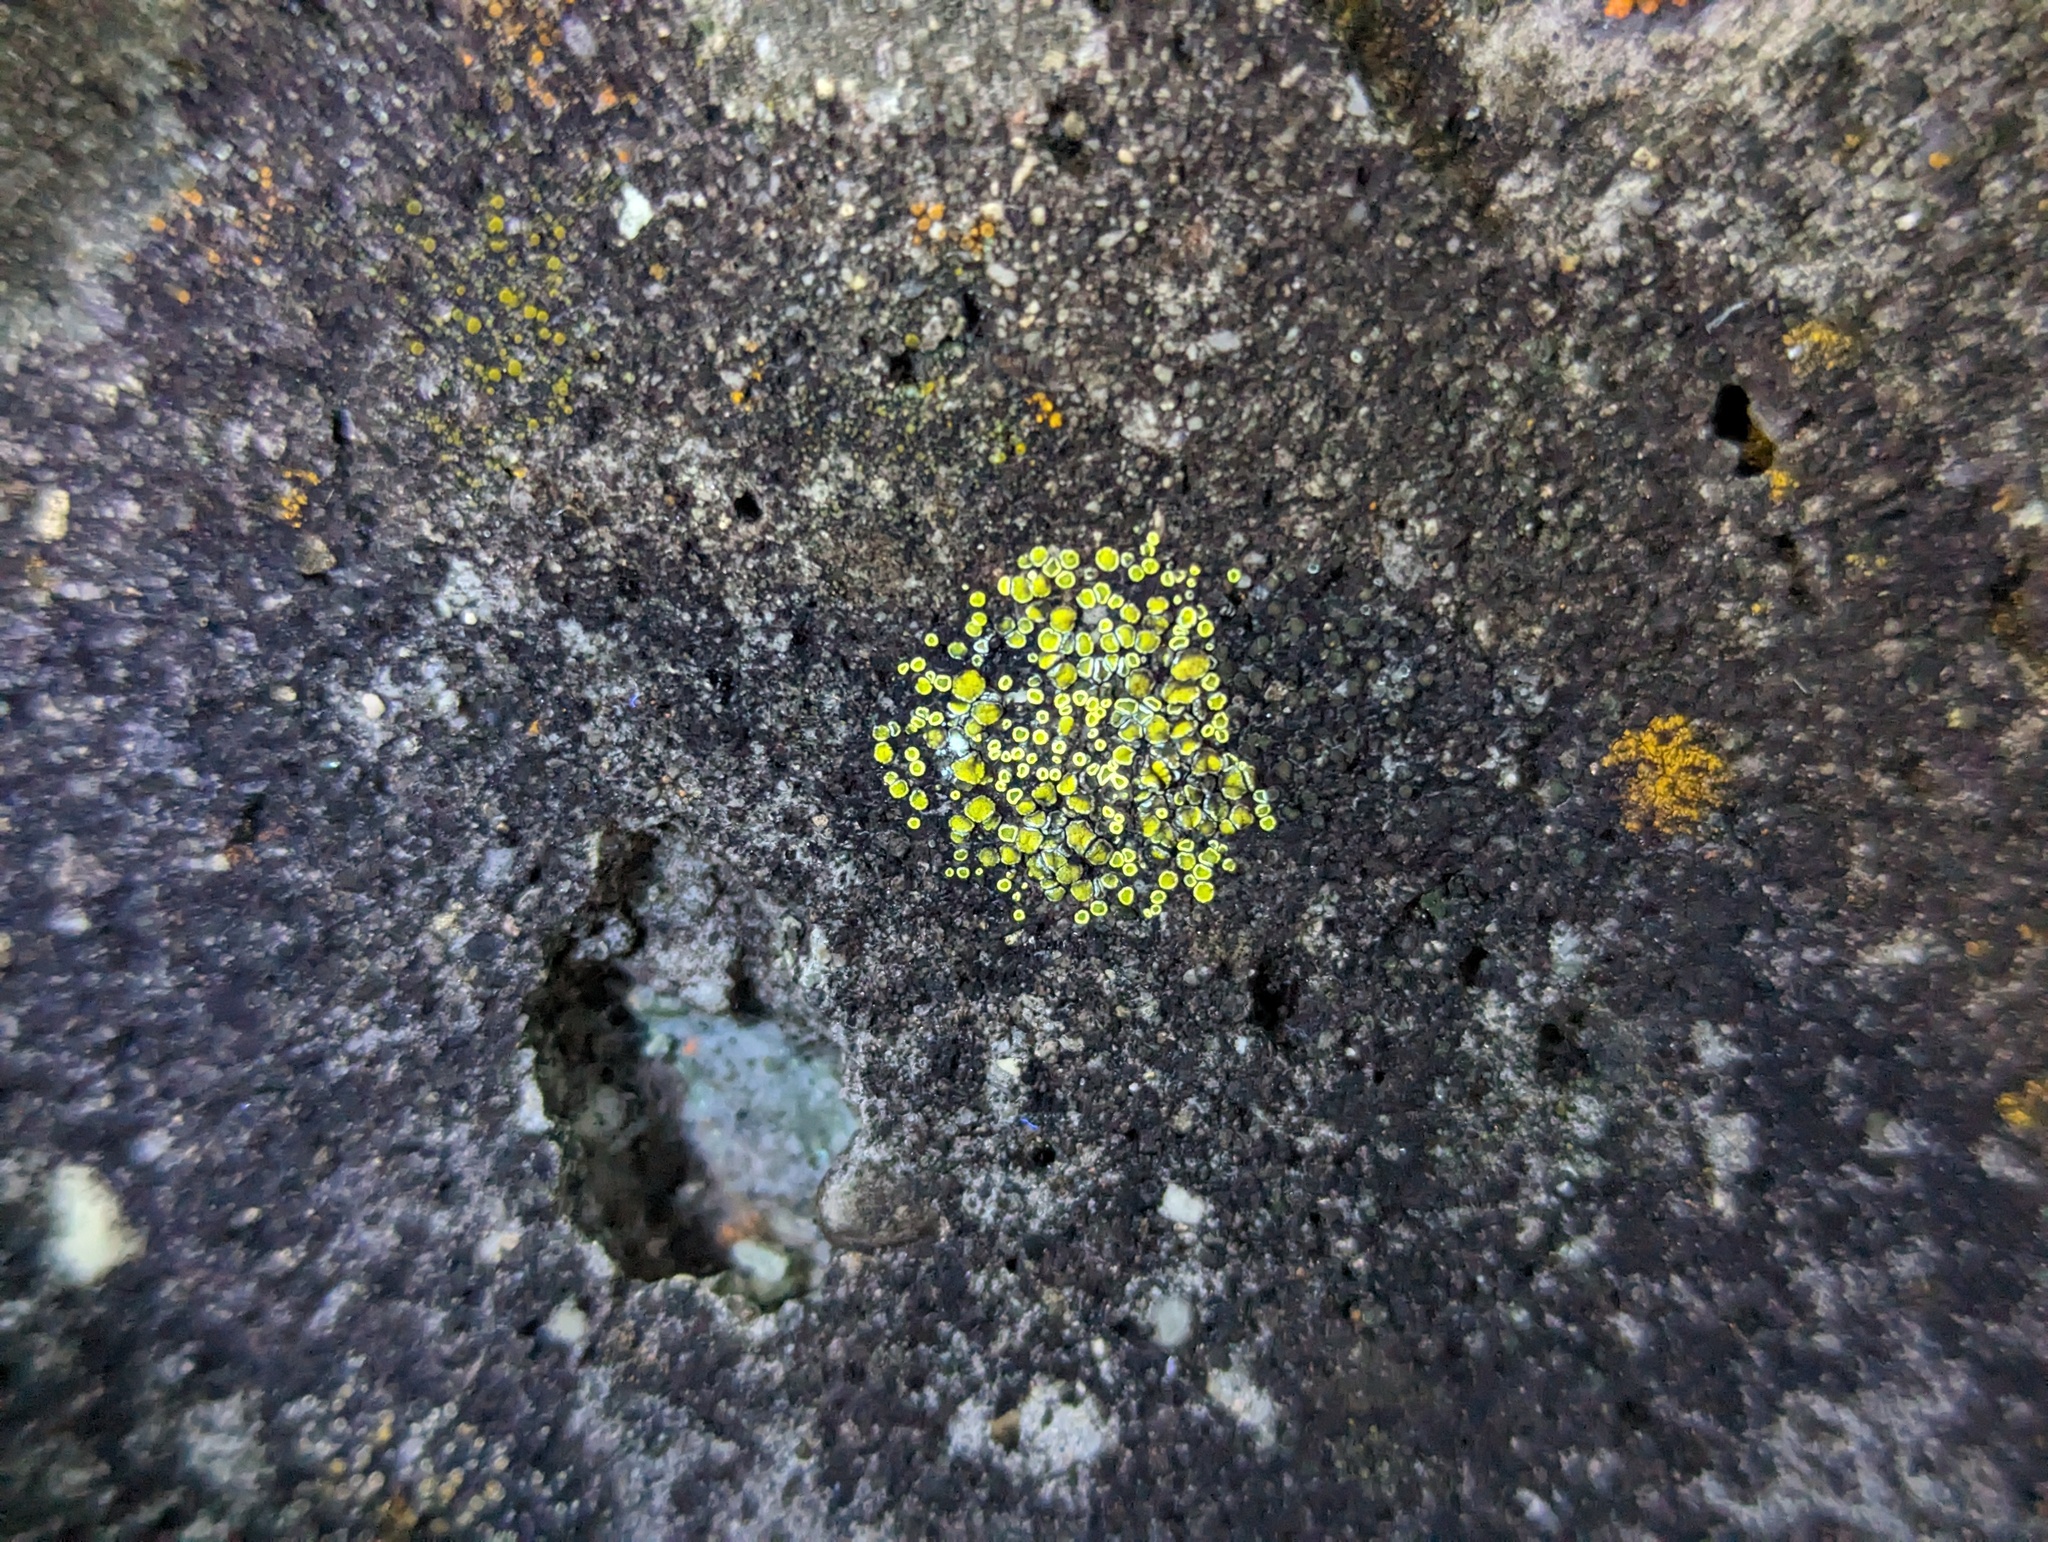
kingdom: Fungi
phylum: Ascomycota
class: Lecanoromycetes
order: Lecanorales
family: Lecanoraceae
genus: Polyozosia
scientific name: Polyozosia semipallida
